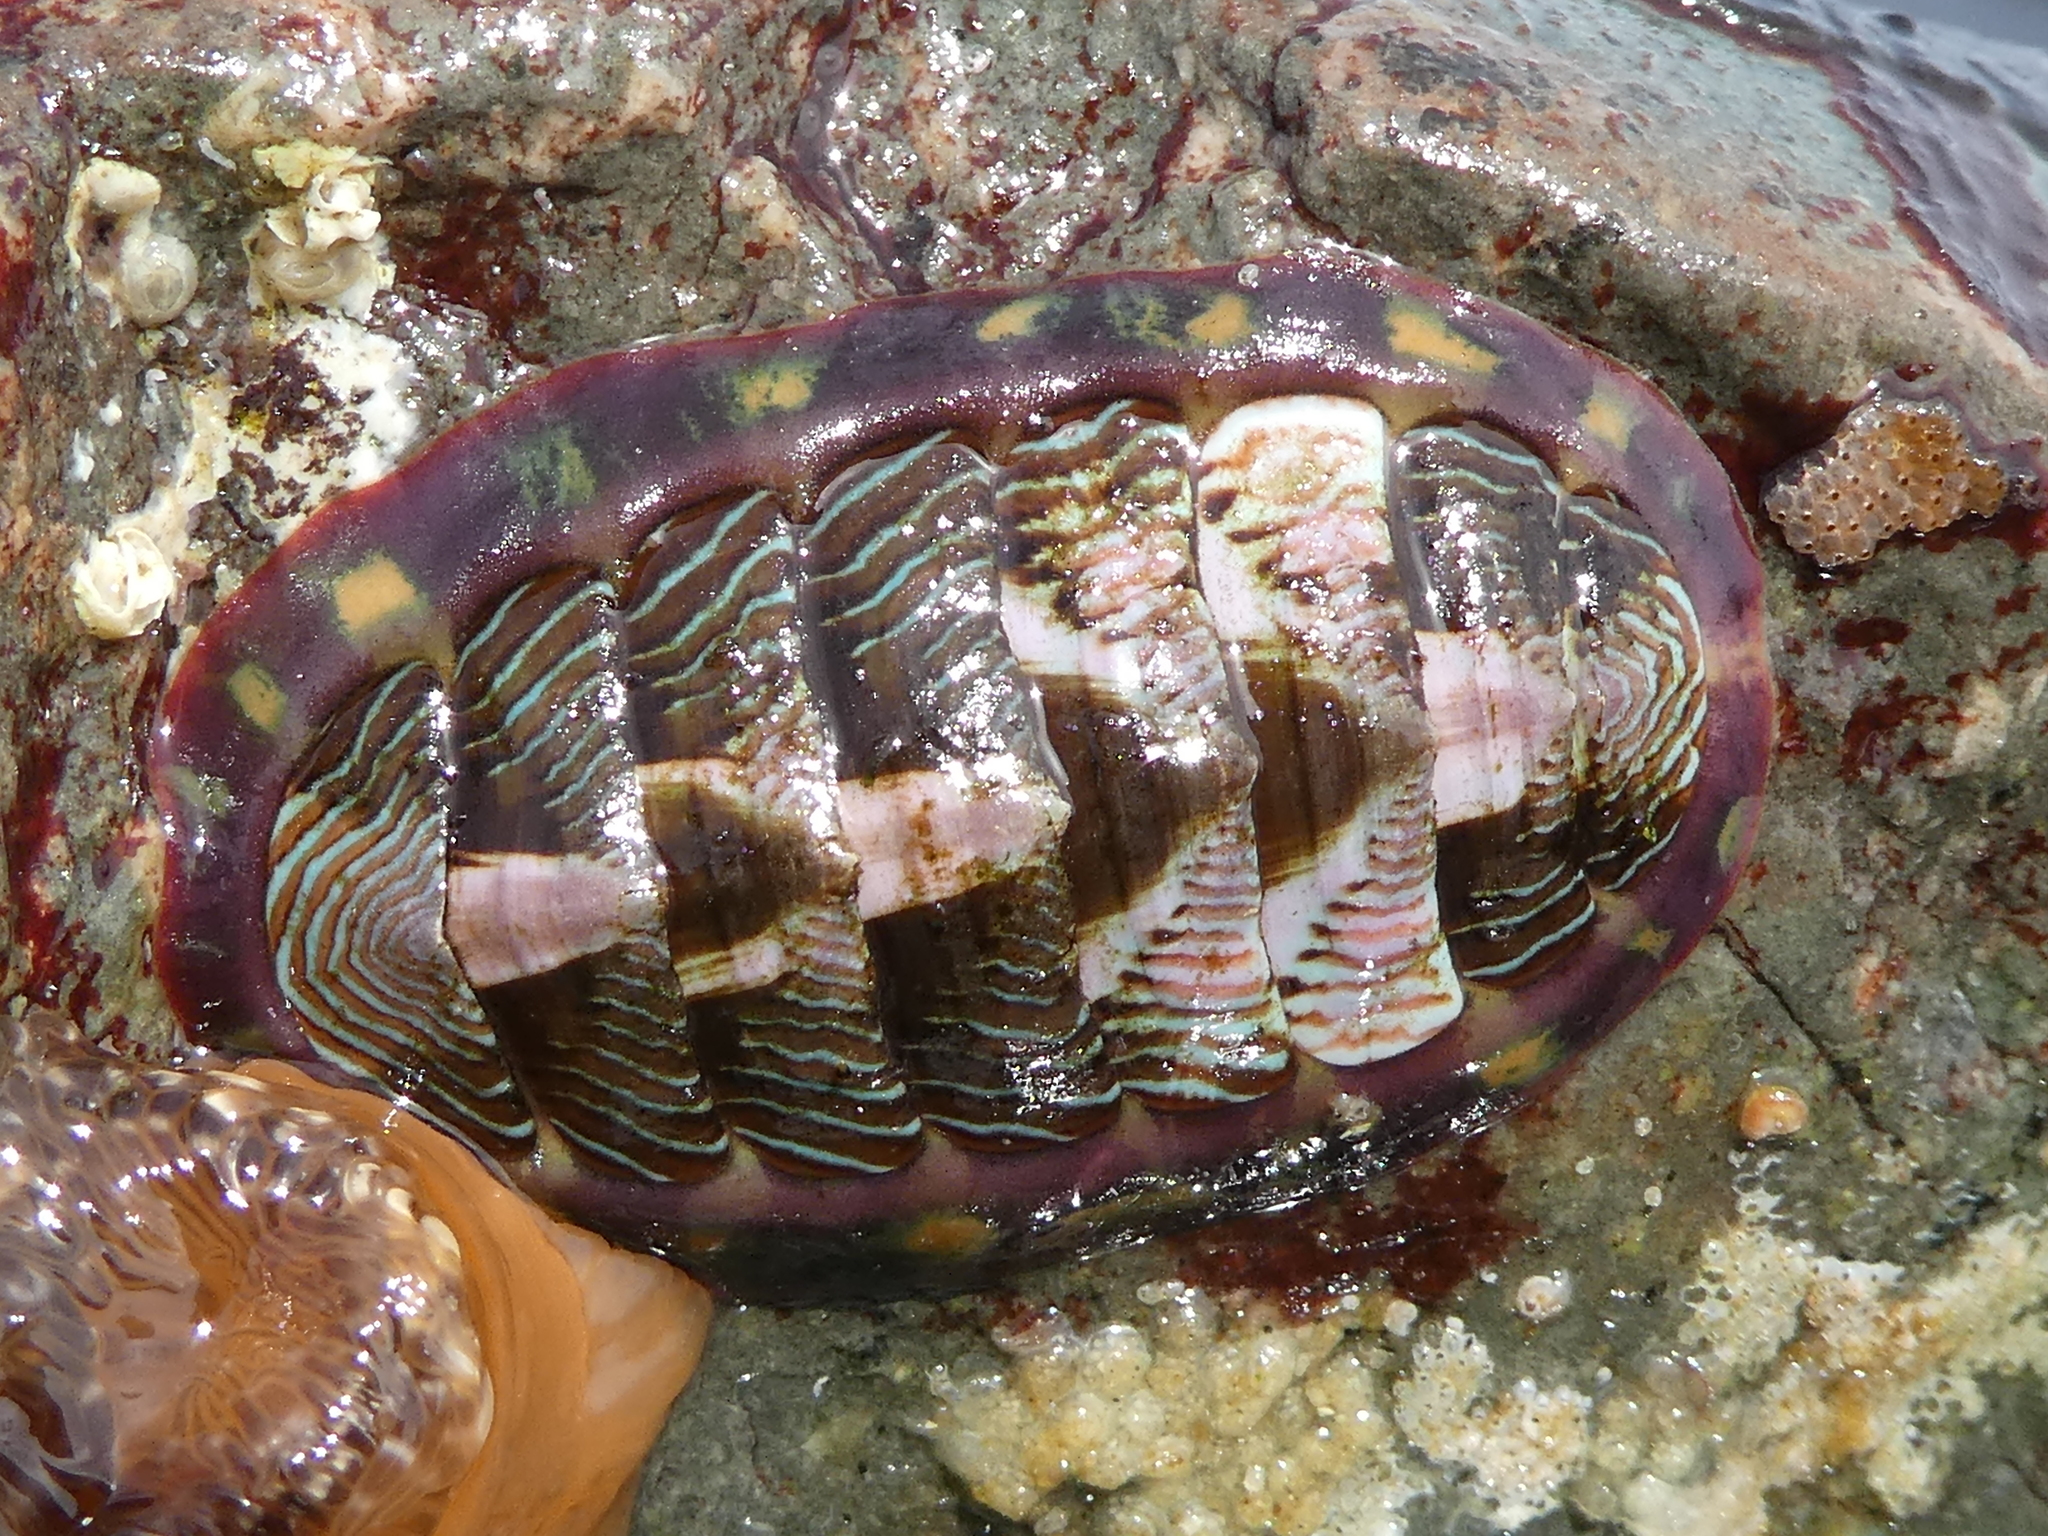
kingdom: Animalia
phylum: Mollusca
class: Polyplacophora
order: Chitonida
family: Tonicellidae
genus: Tonicella
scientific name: Tonicella lineata
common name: Lined chiton
